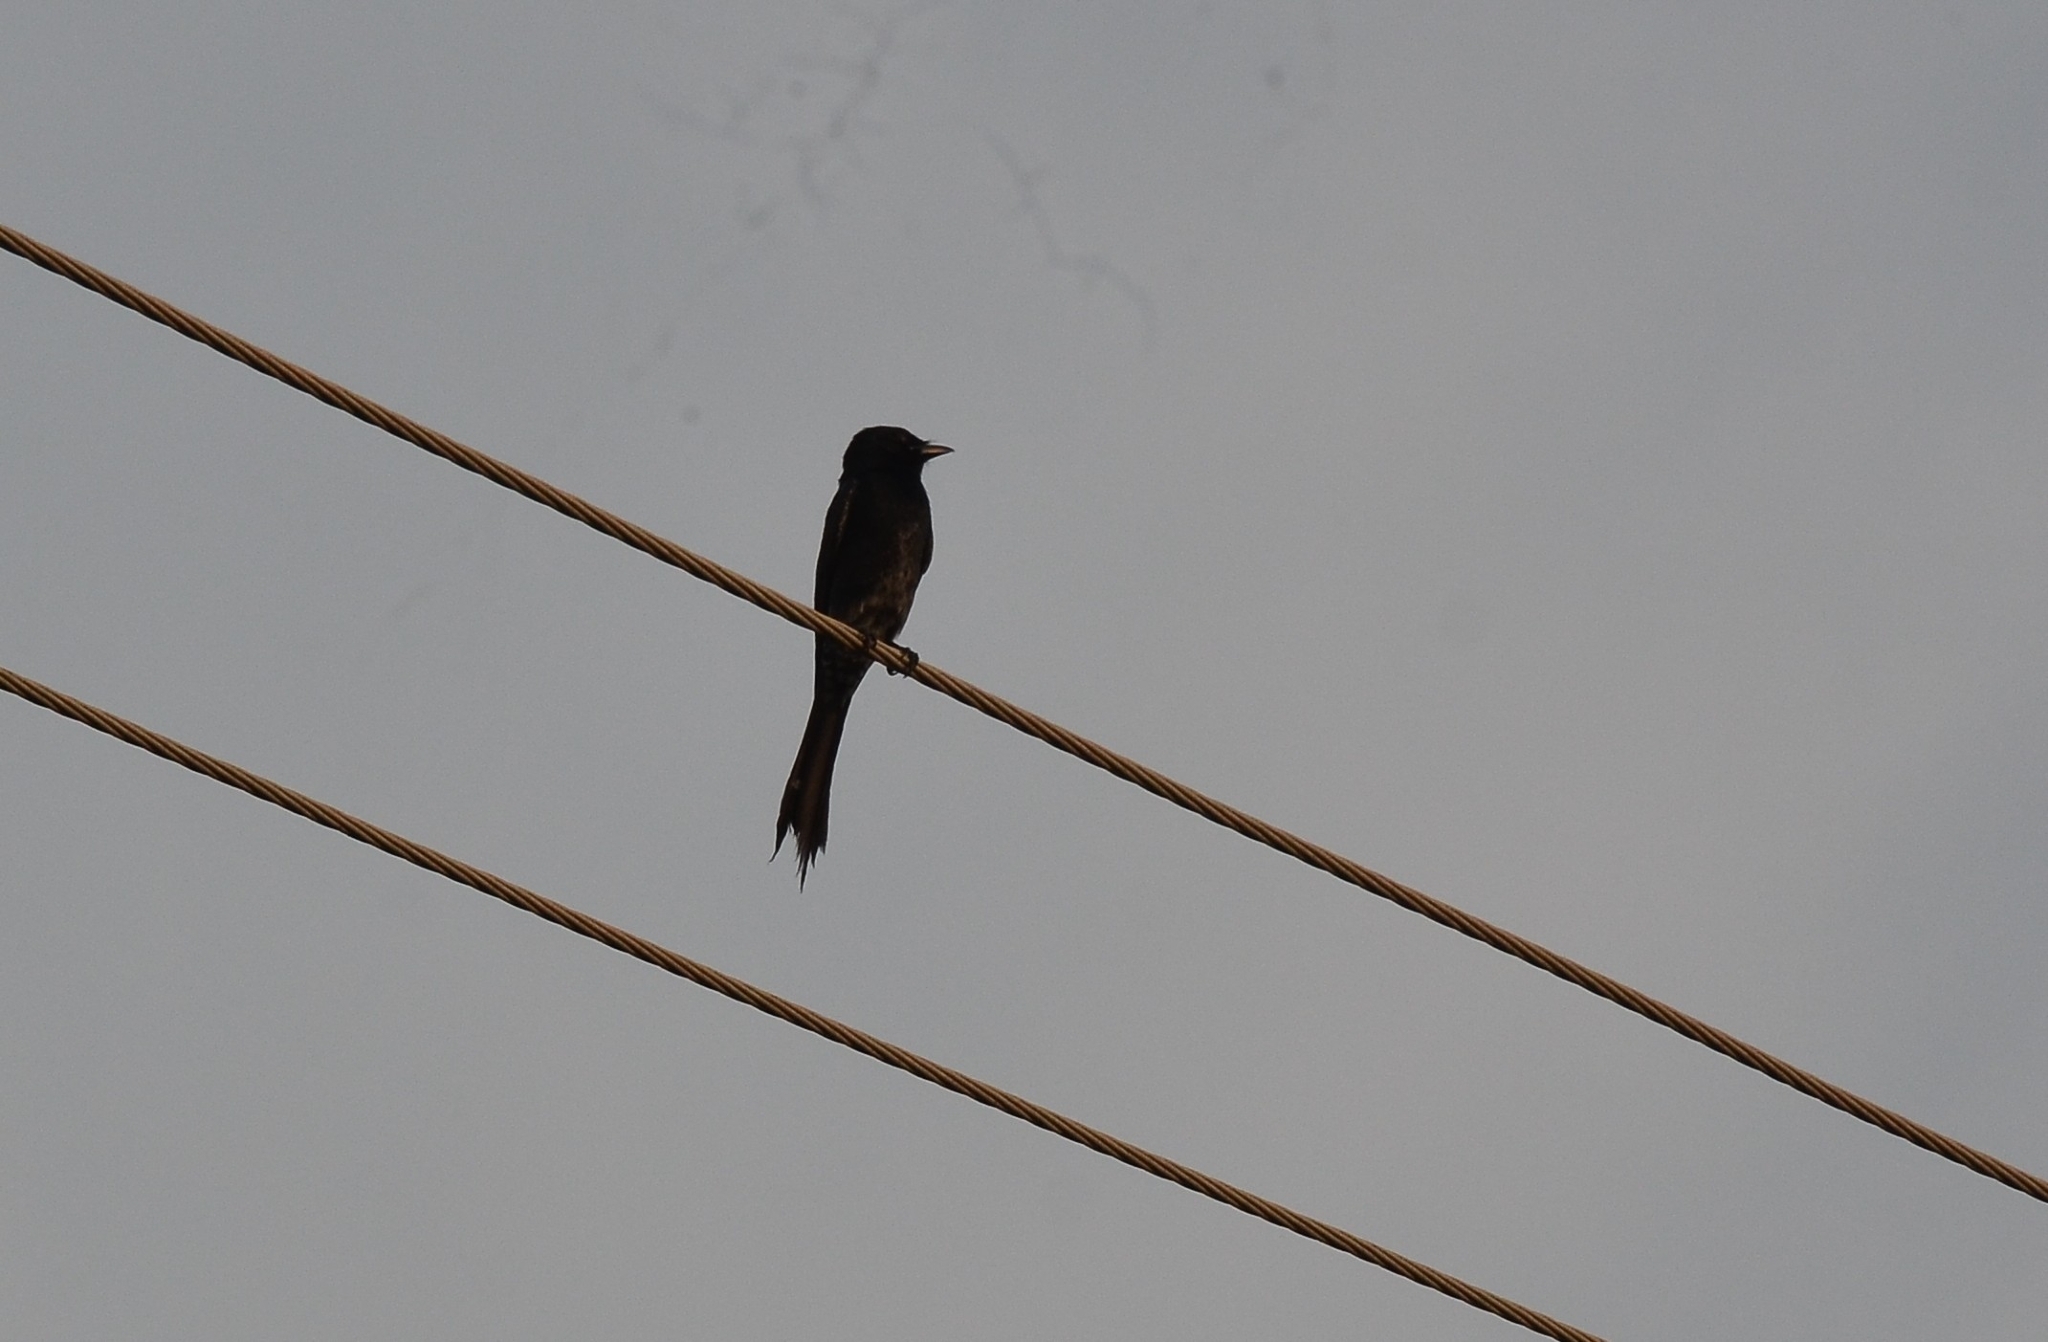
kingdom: Animalia
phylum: Chordata
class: Aves
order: Passeriformes
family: Dicruridae
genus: Dicrurus
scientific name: Dicrurus macrocercus
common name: Black drongo
